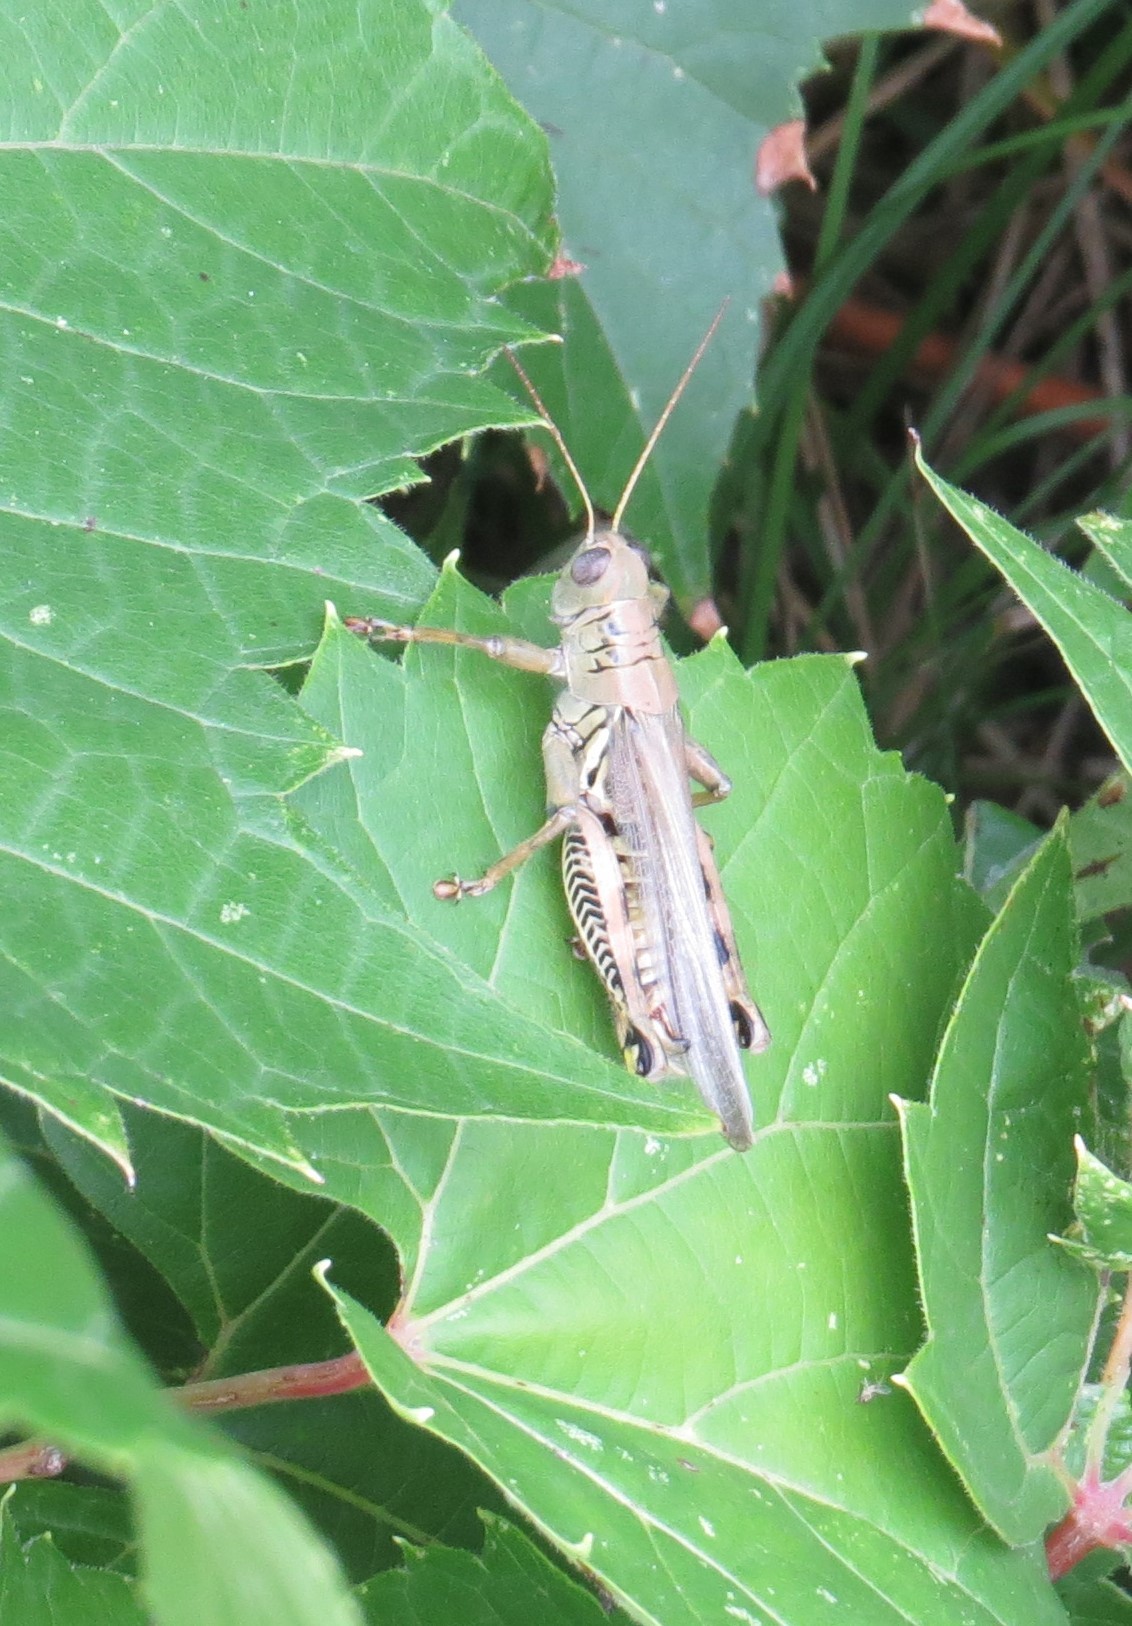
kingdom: Animalia
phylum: Arthropoda
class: Insecta
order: Orthoptera
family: Acrididae
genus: Melanoplus
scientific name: Melanoplus differentialis
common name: Differential grasshopper
